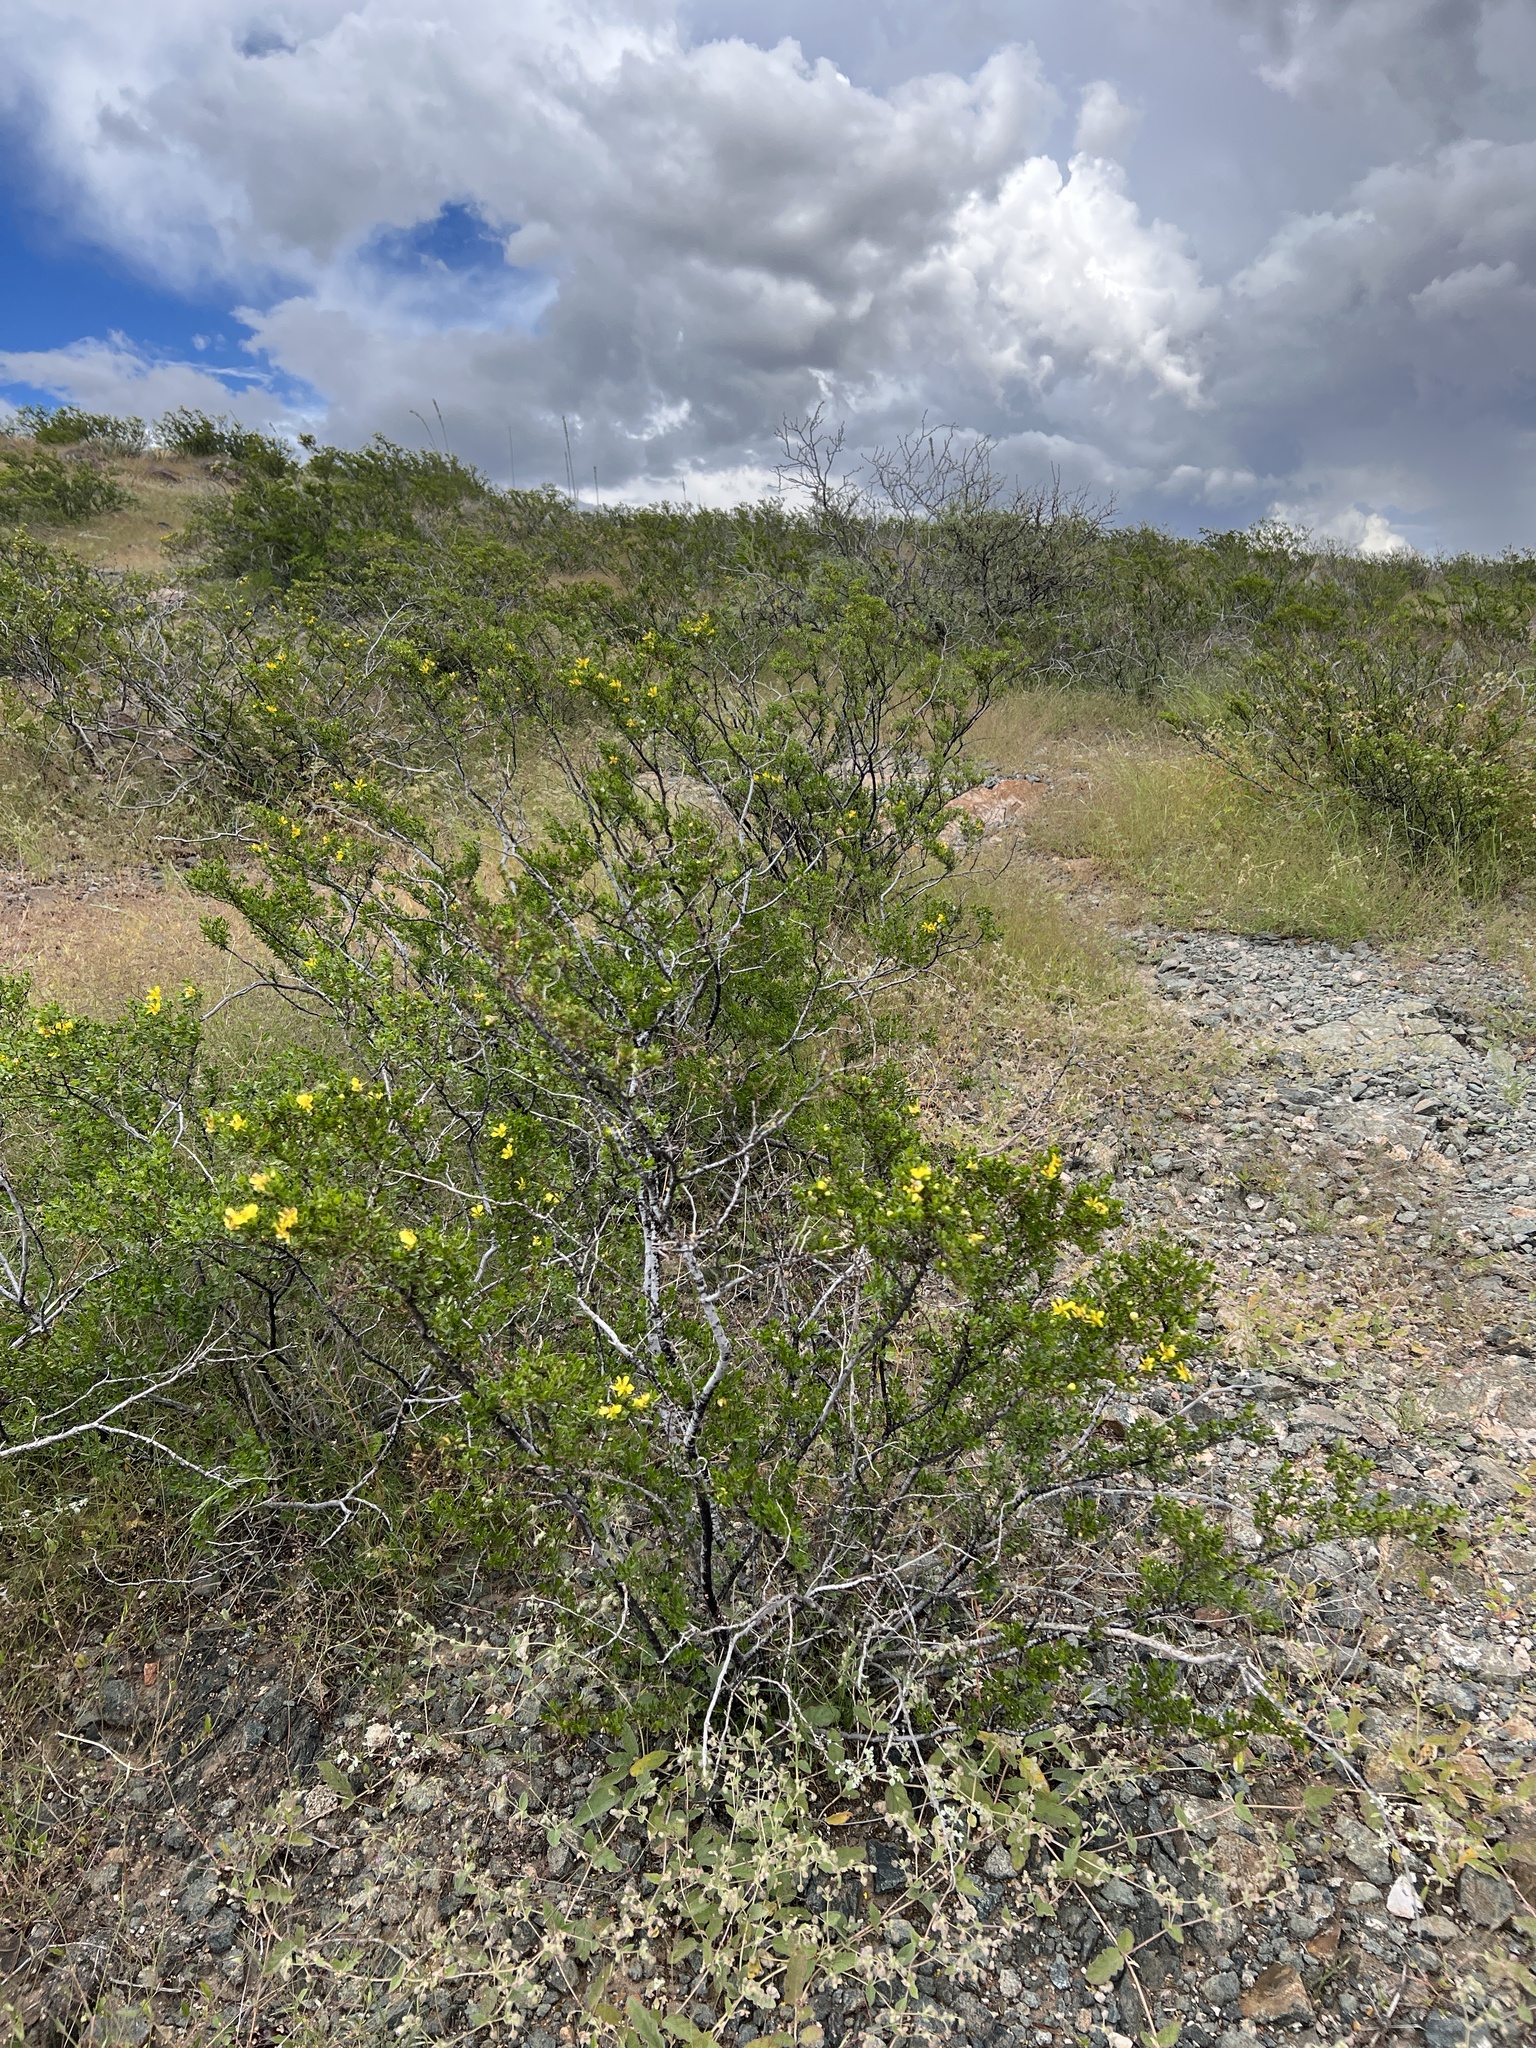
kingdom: Plantae
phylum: Tracheophyta
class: Magnoliopsida
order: Zygophyllales
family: Zygophyllaceae
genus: Larrea
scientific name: Larrea tridentata
